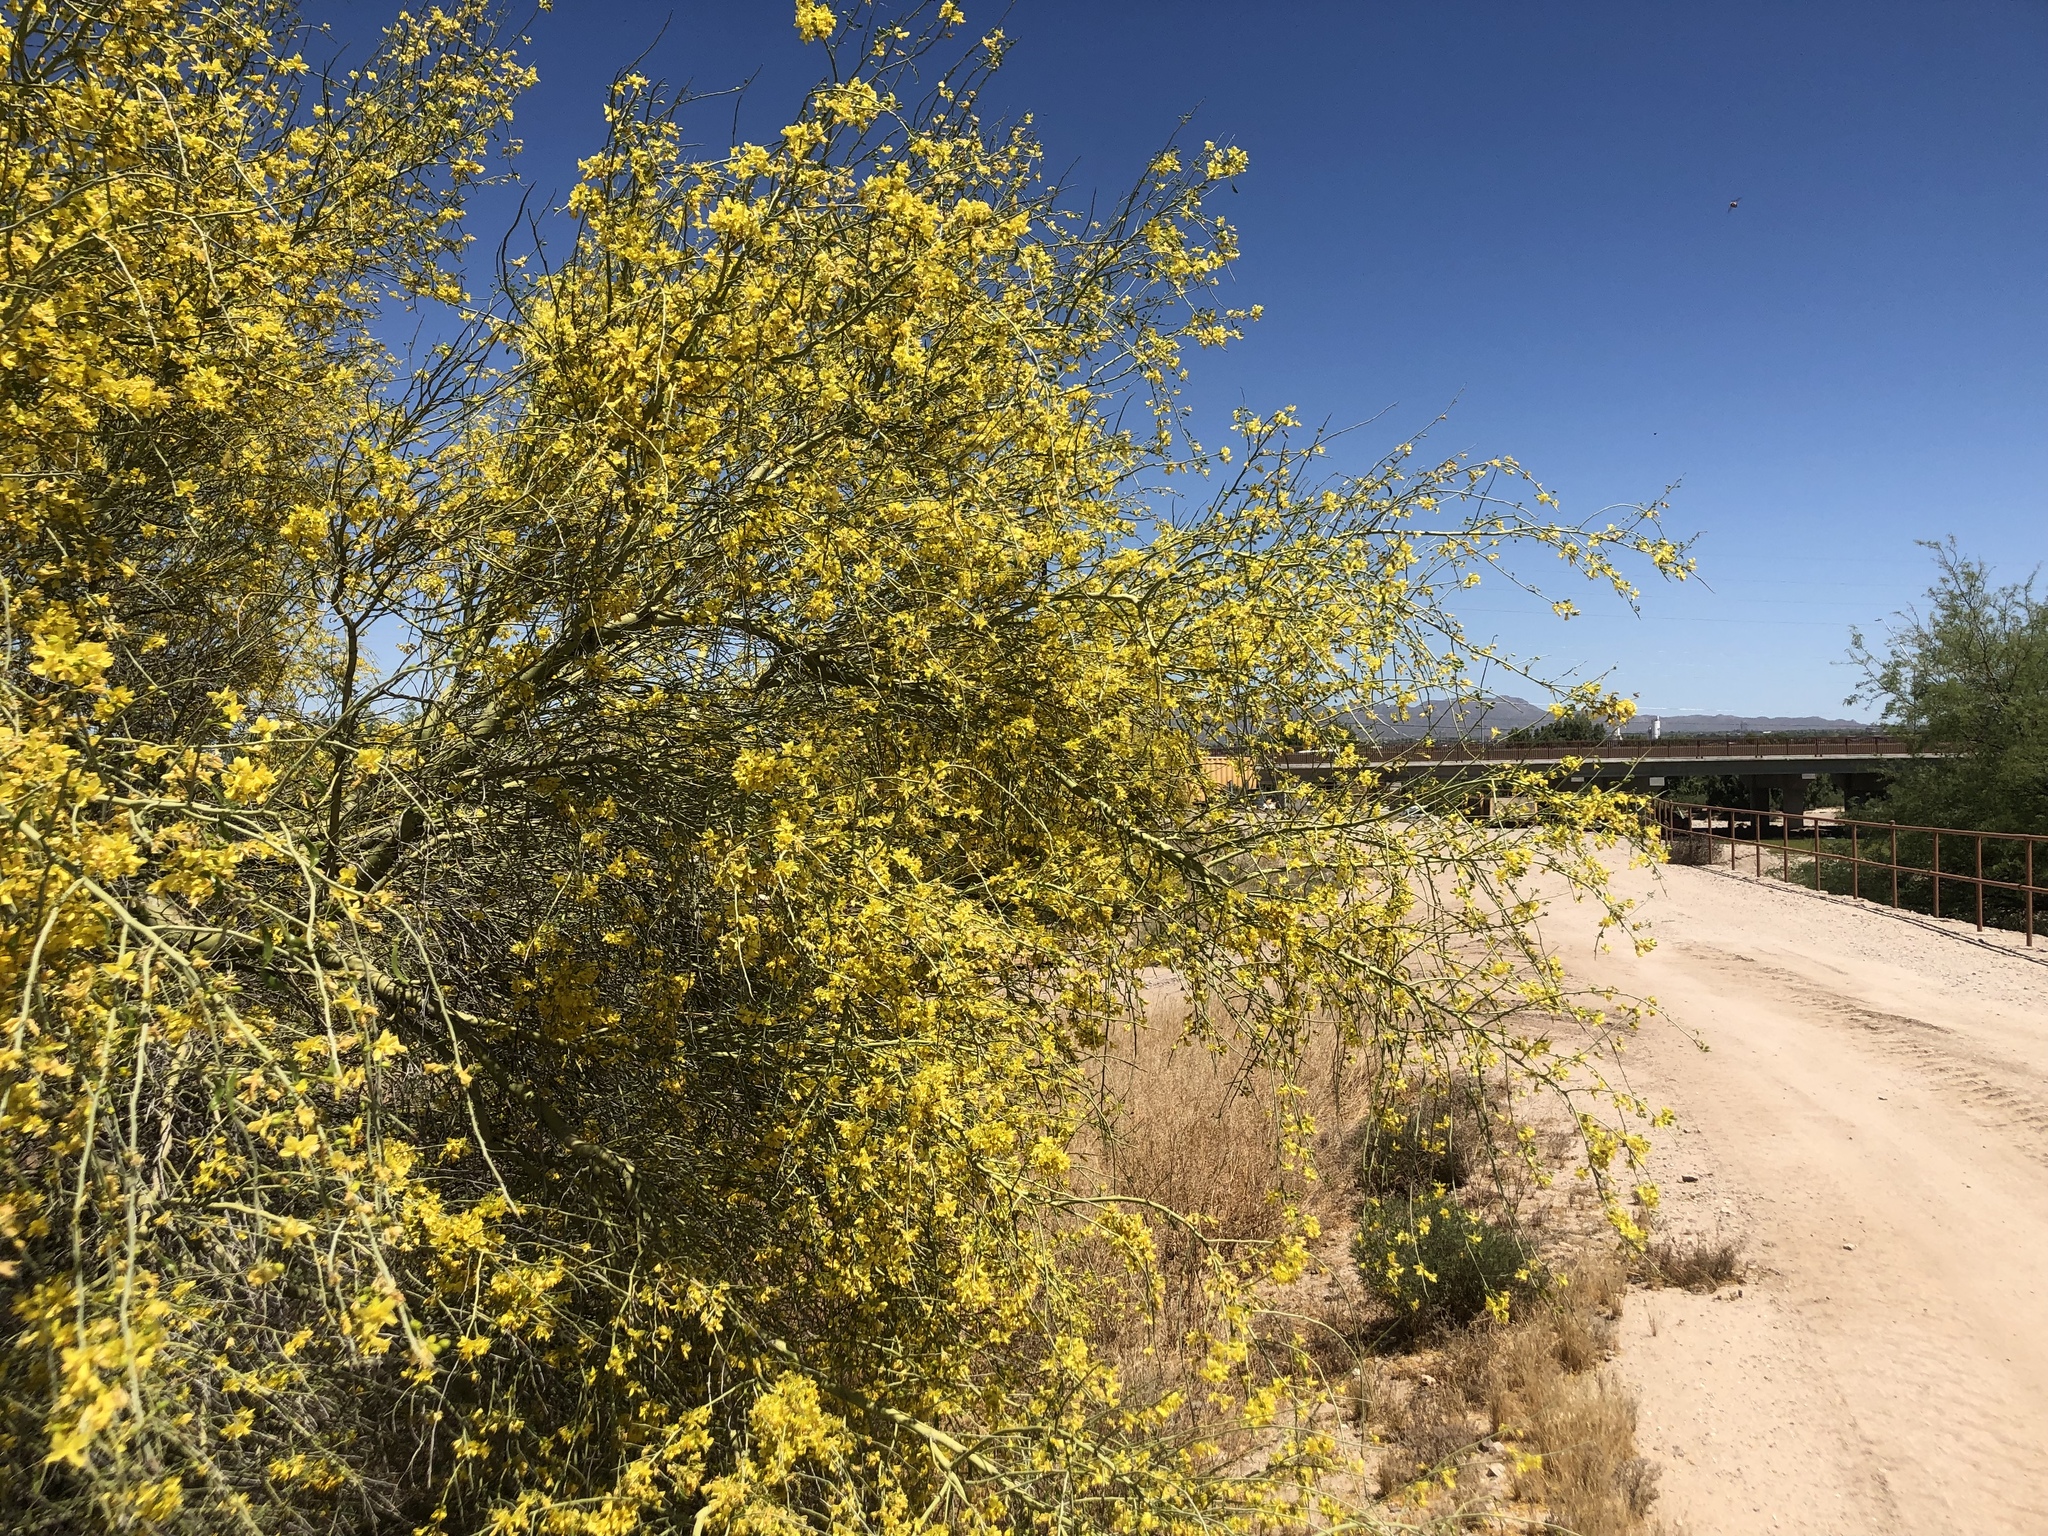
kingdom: Plantae
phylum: Tracheophyta
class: Magnoliopsida
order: Fabales
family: Fabaceae
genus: Parkinsonia
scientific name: Parkinsonia florida
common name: Blue paloverde
